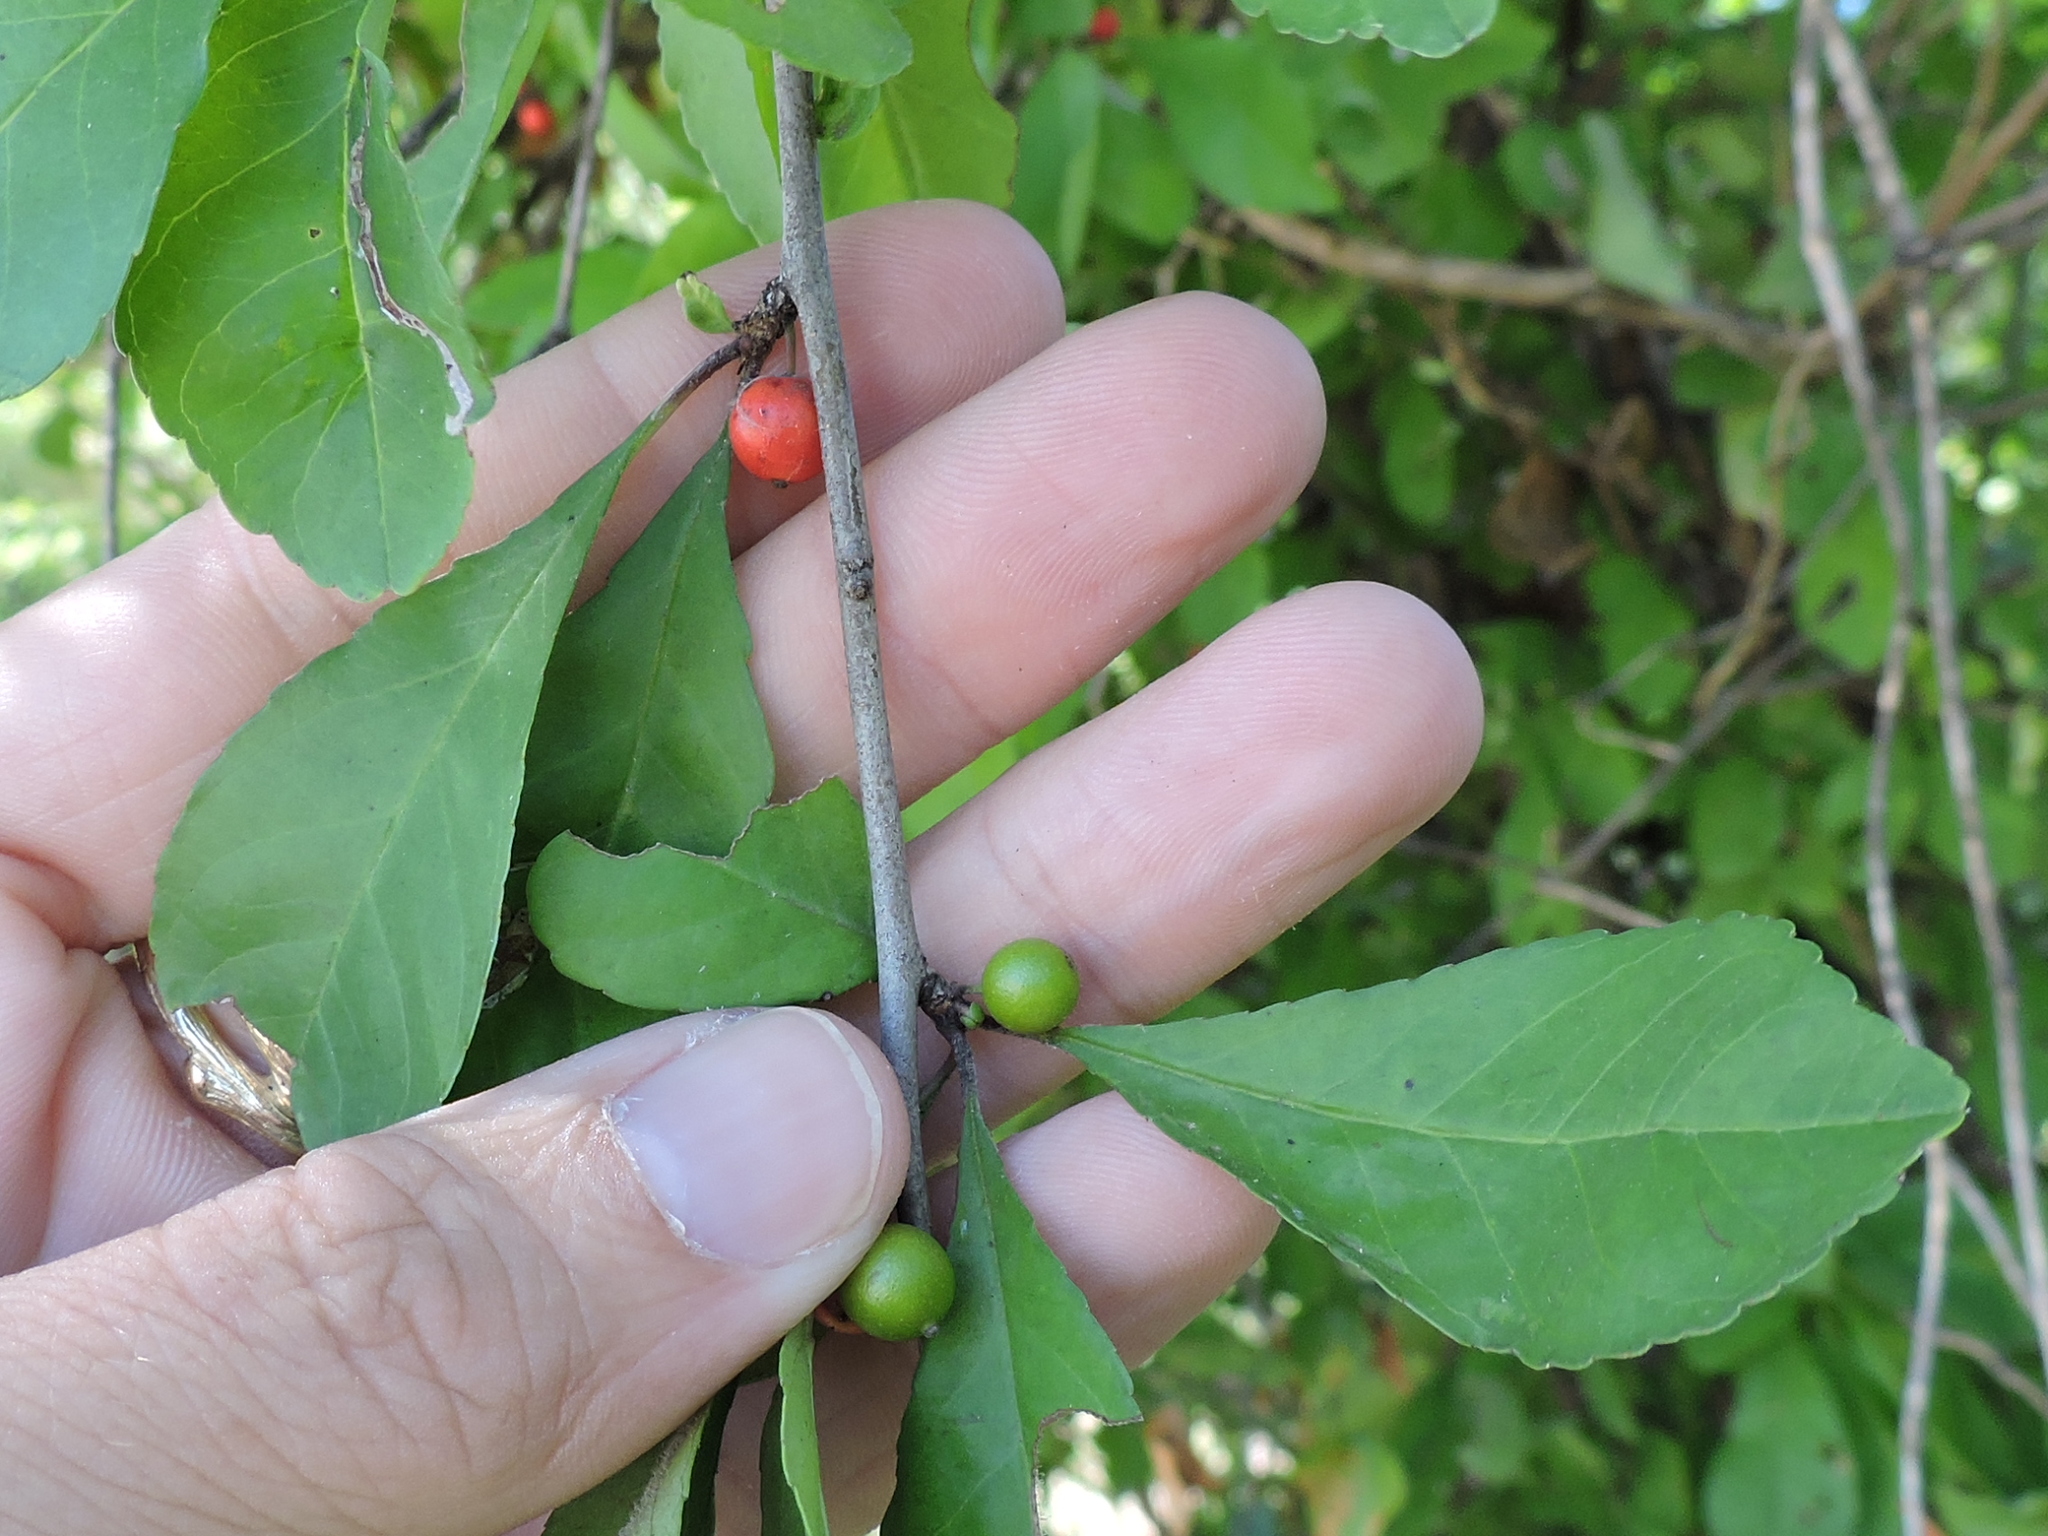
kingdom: Plantae
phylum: Tracheophyta
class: Magnoliopsida
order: Aquifoliales
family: Aquifoliaceae
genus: Ilex
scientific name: Ilex decidua
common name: Possum-haw
